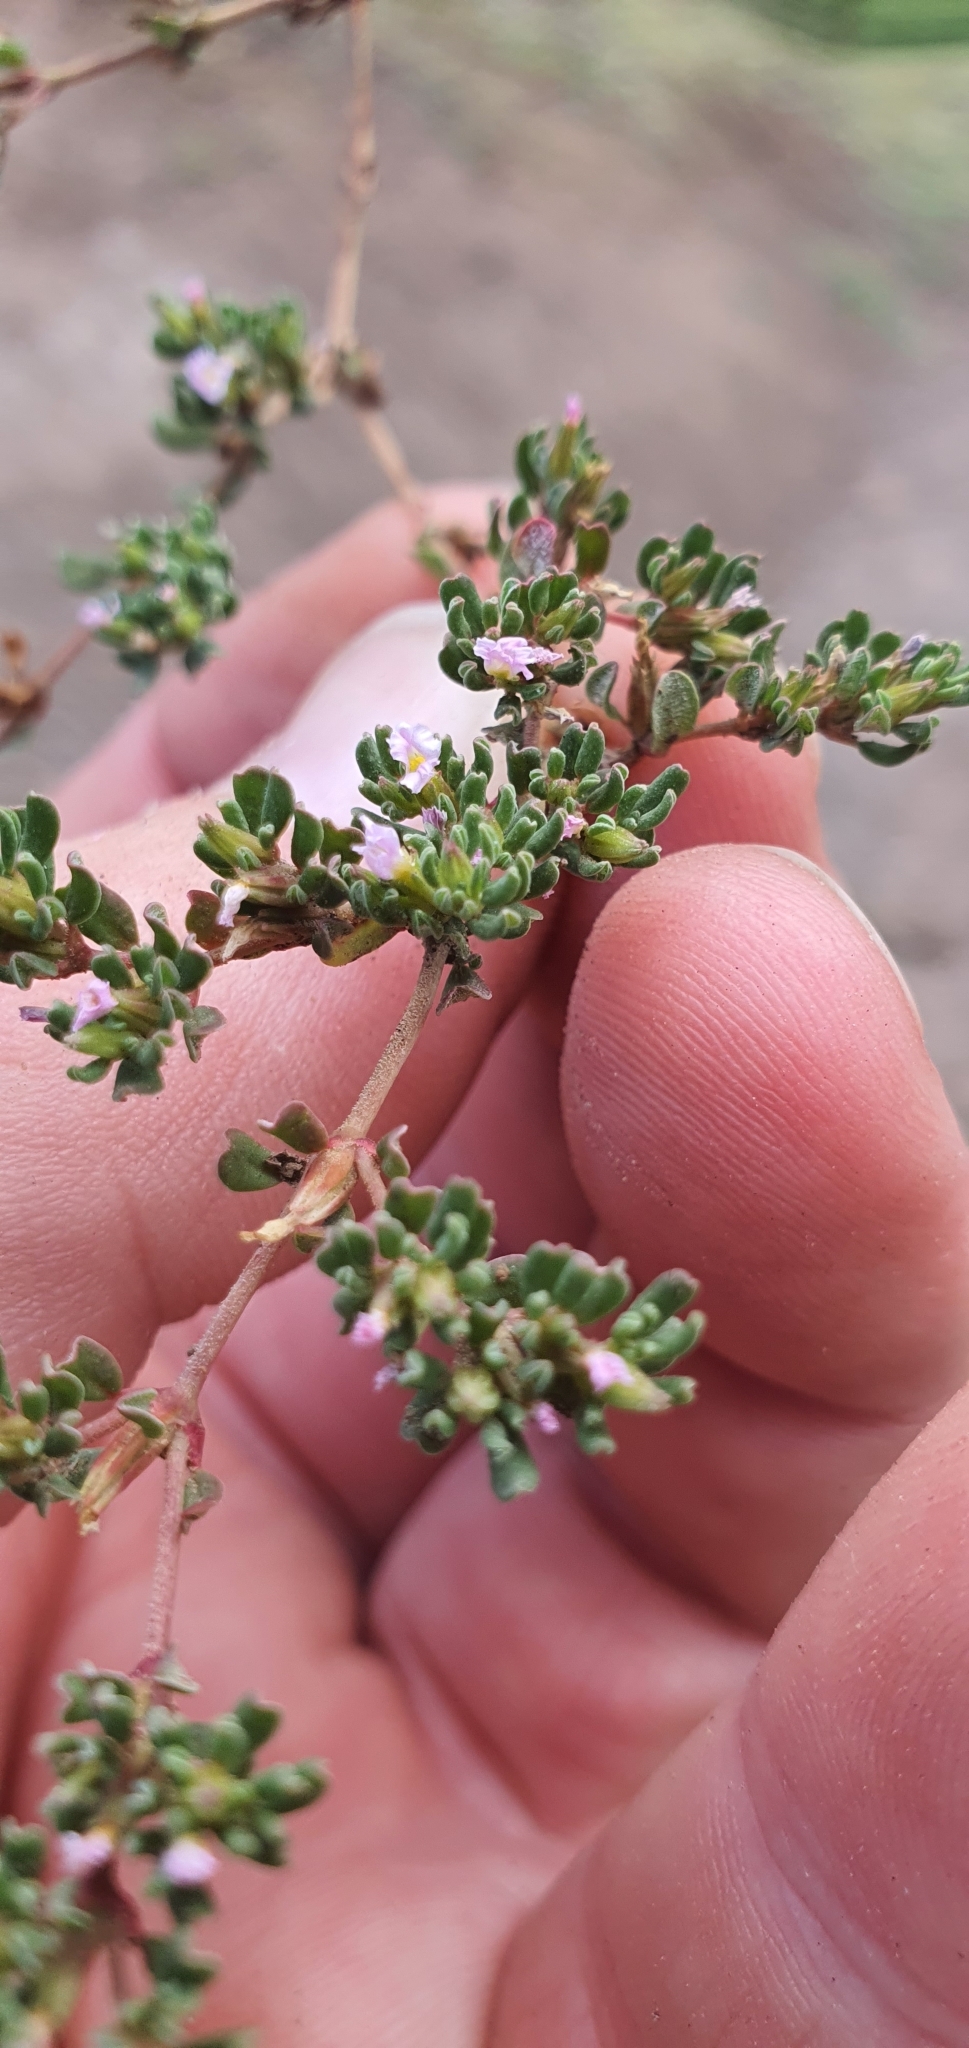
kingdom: Plantae
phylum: Tracheophyta
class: Magnoliopsida
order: Caryophyllales
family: Frankeniaceae
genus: Frankenia
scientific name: Frankenia pulverulenta
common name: European seaheath
